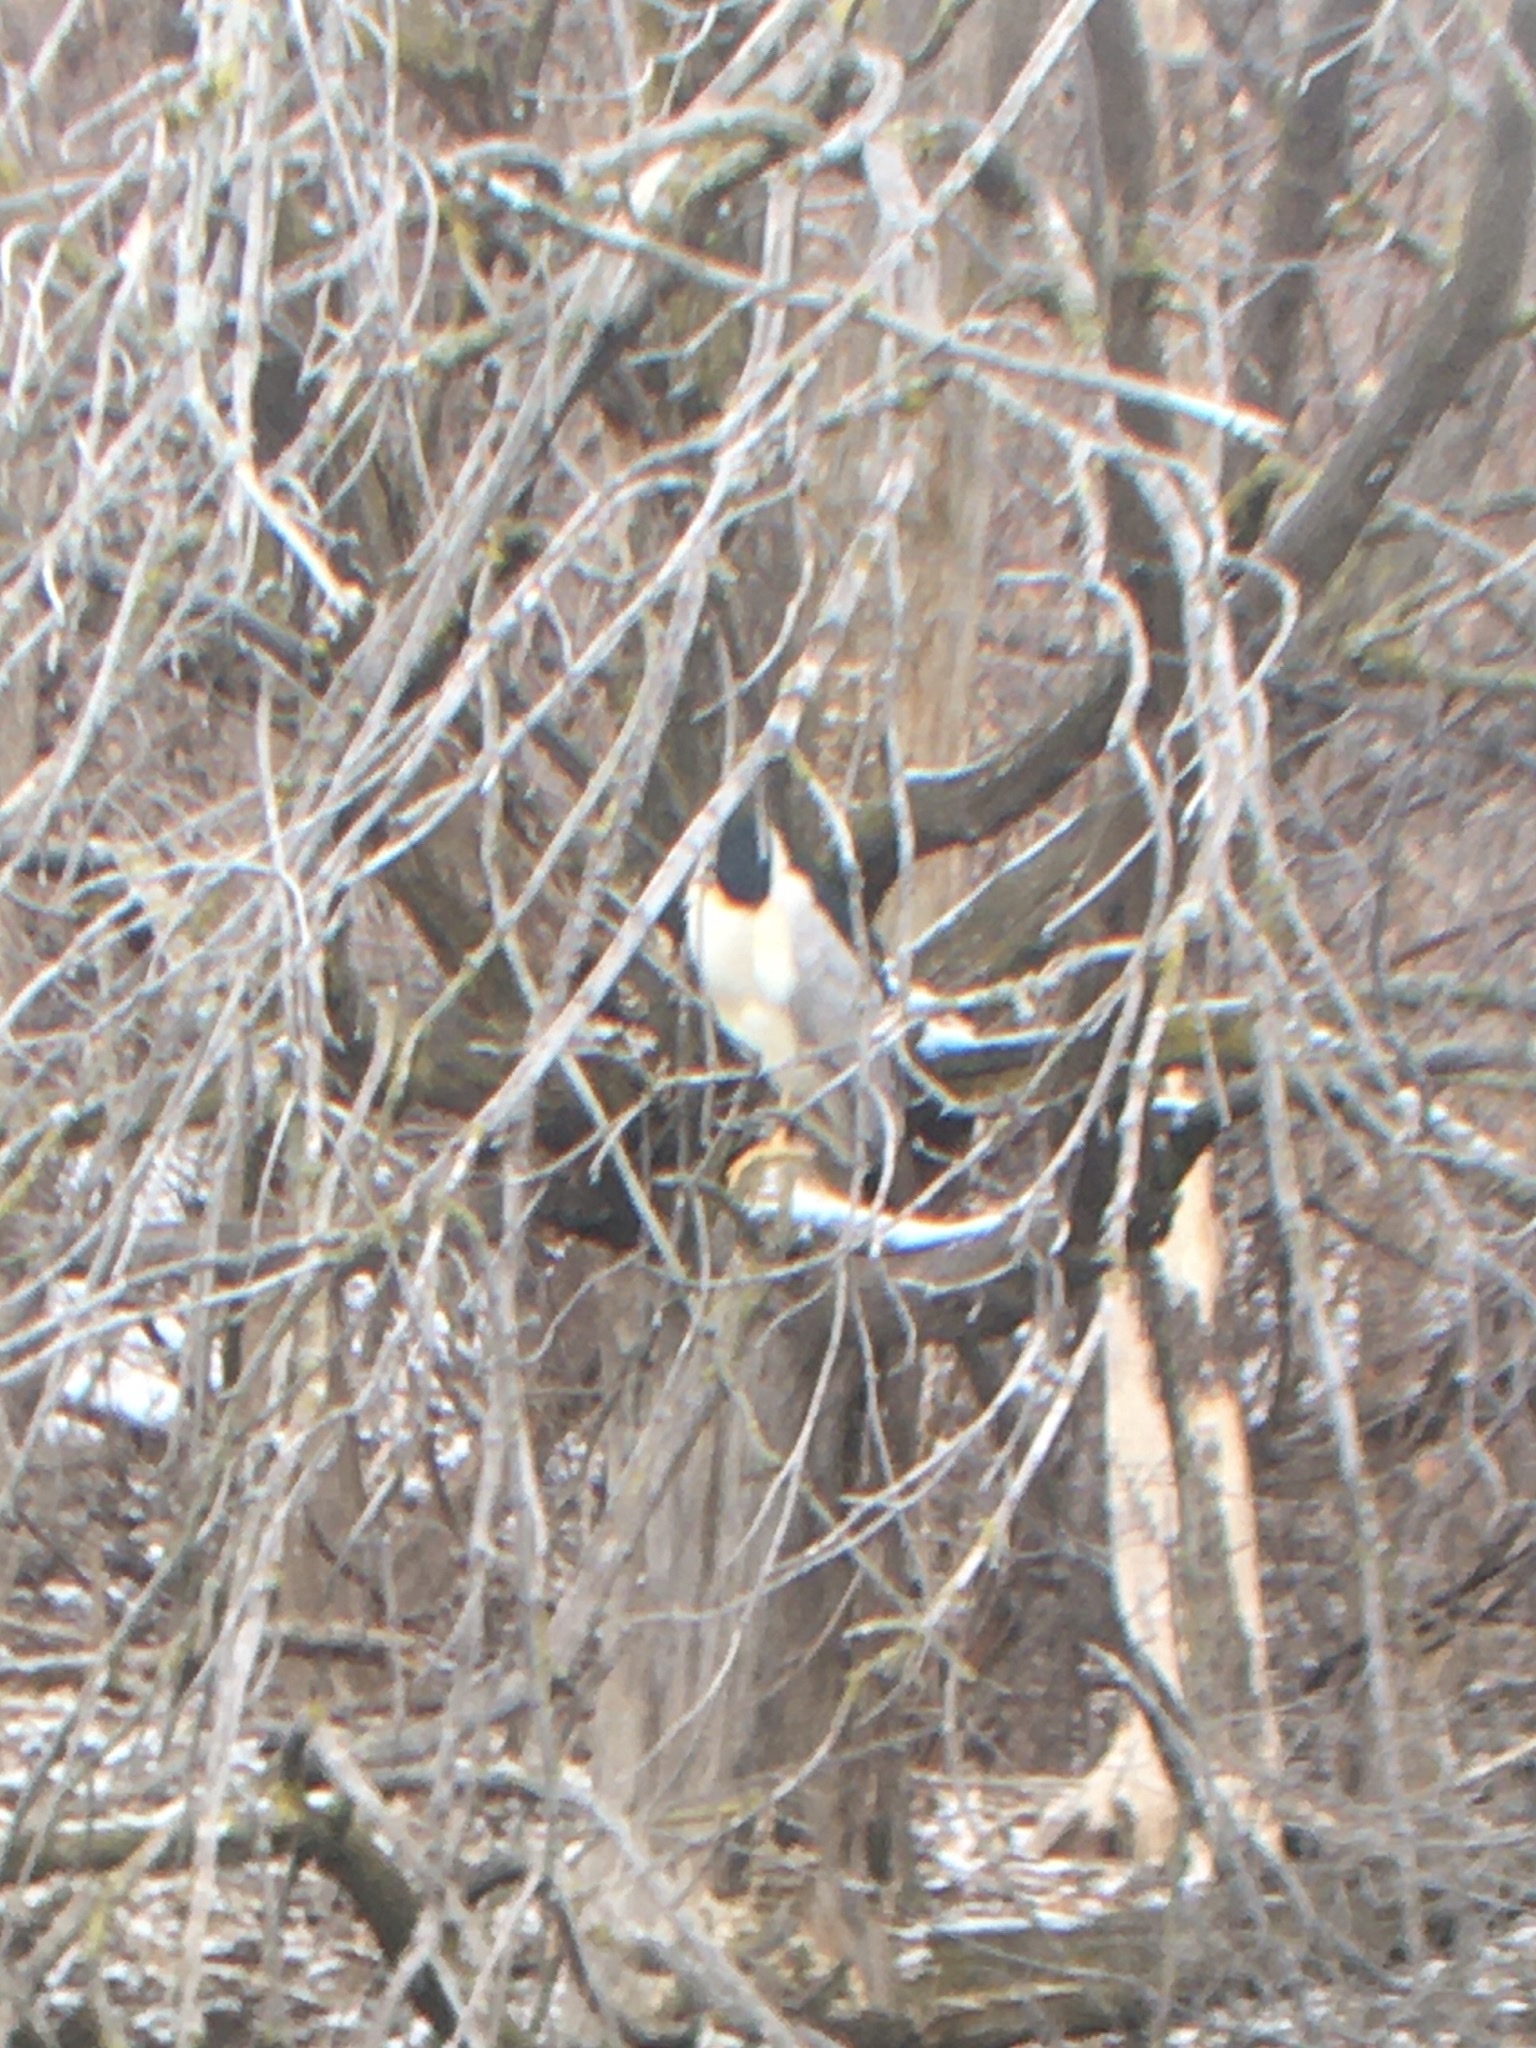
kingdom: Animalia
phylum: Chordata
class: Aves
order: Pelecaniformes
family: Ardeidae
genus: Nycticorax
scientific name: Nycticorax nycticorax
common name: Black-crowned night heron
